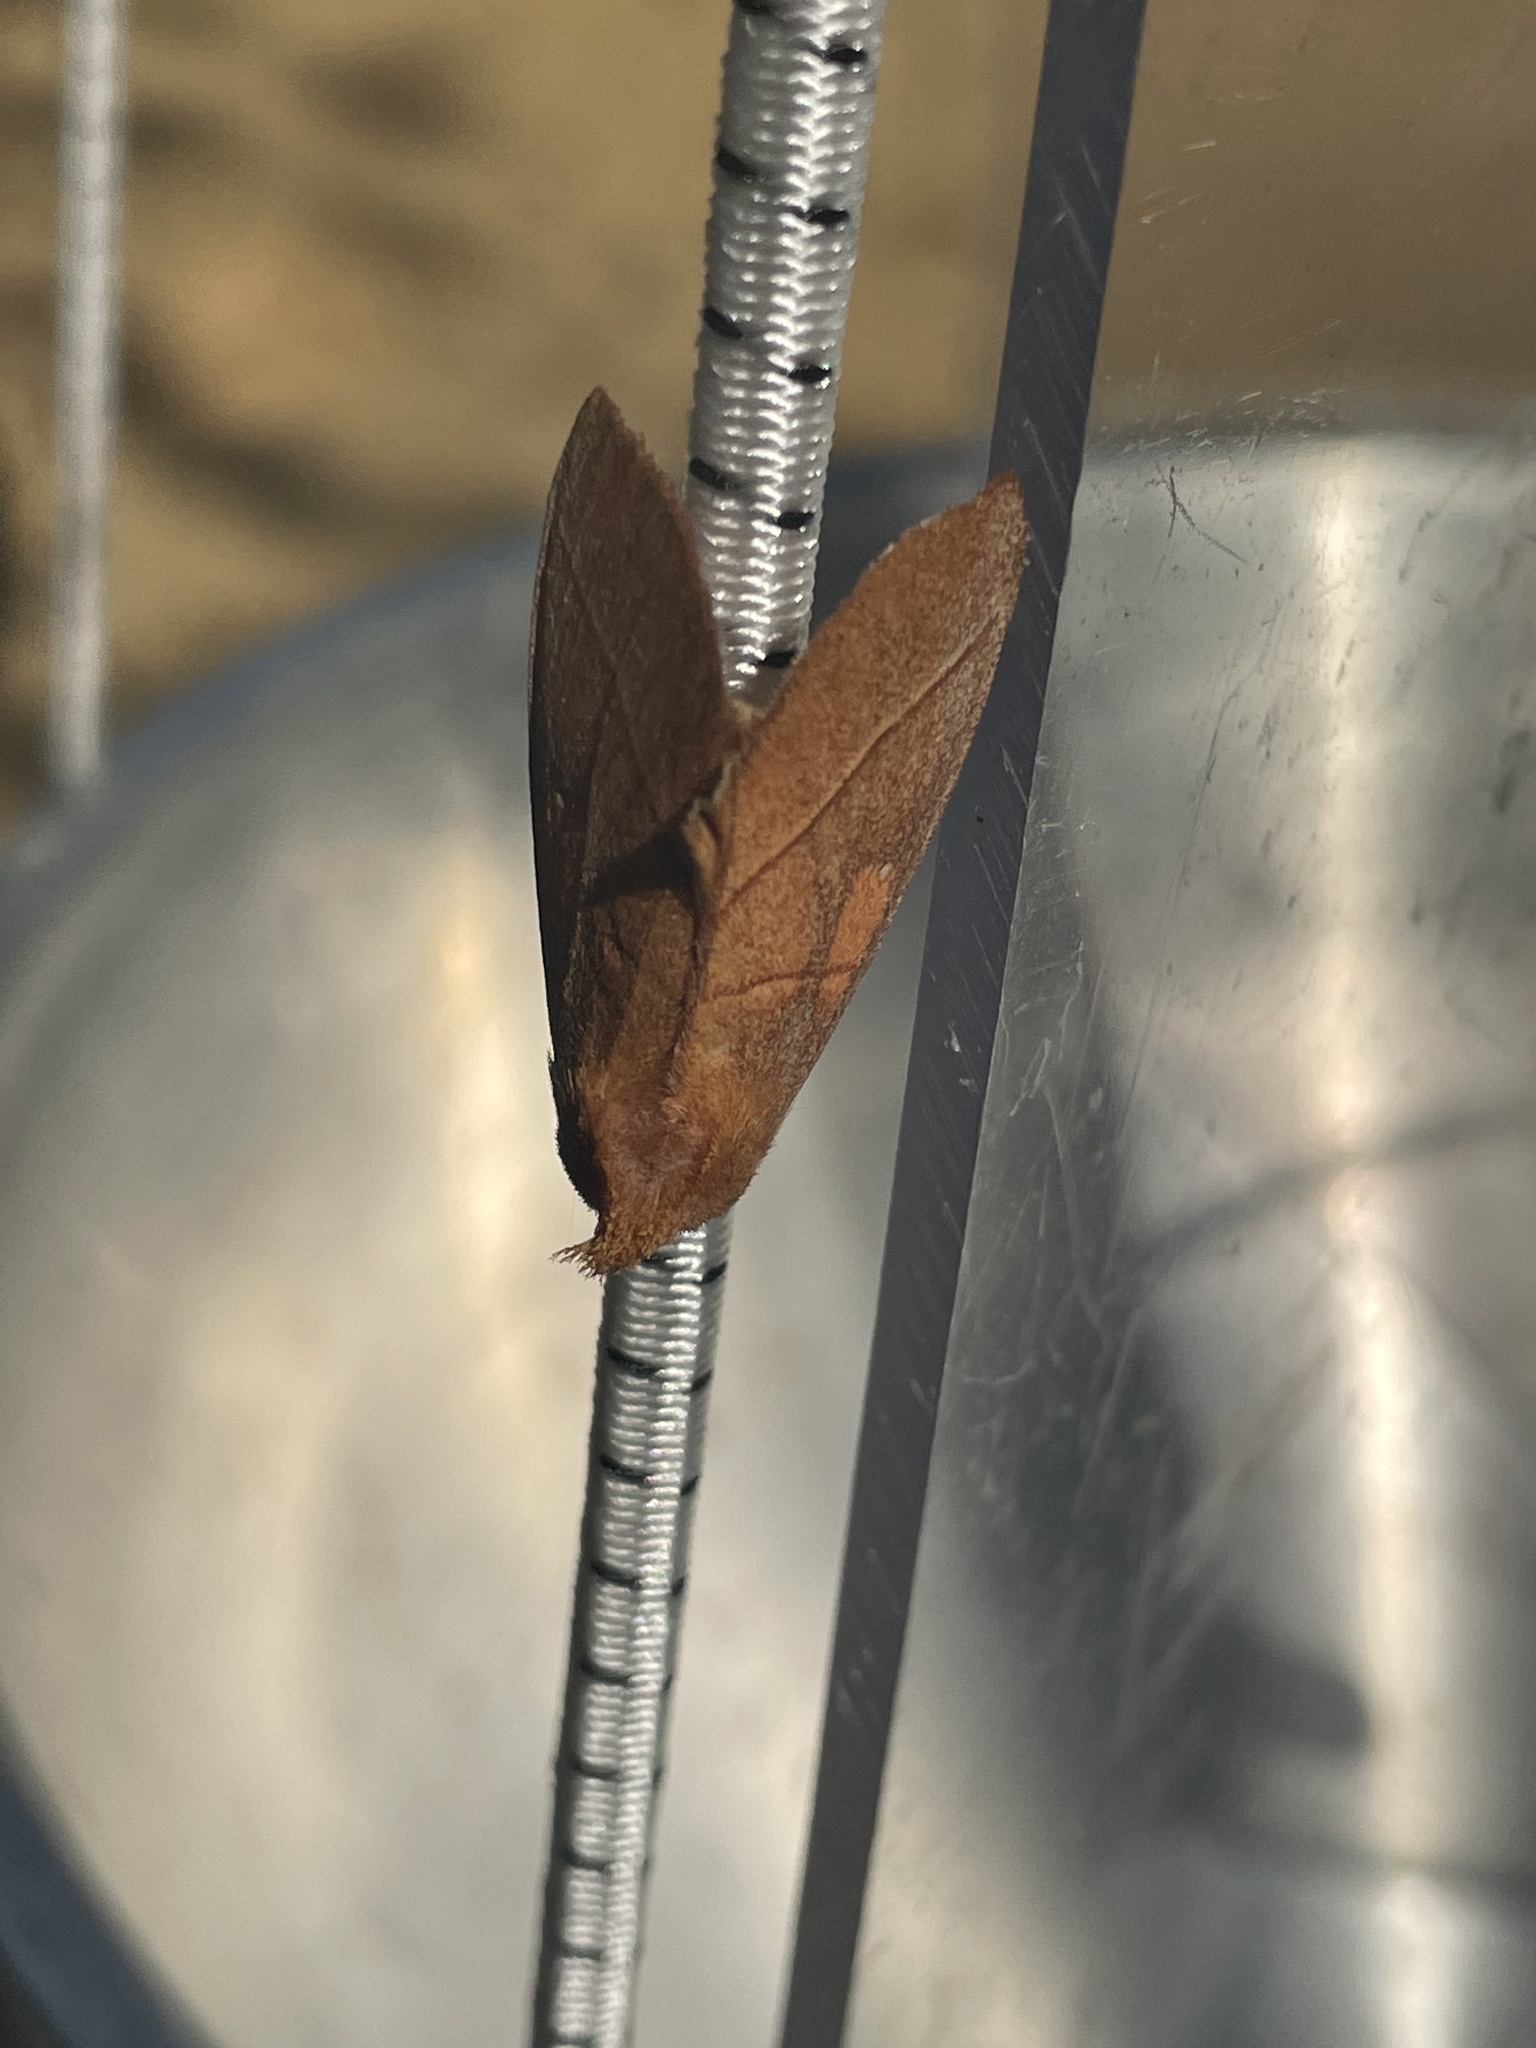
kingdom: Animalia
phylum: Arthropoda
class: Insecta
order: Lepidoptera
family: Notodontidae
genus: Nadata
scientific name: Nadata gibbosa
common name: White-dotted prominent
